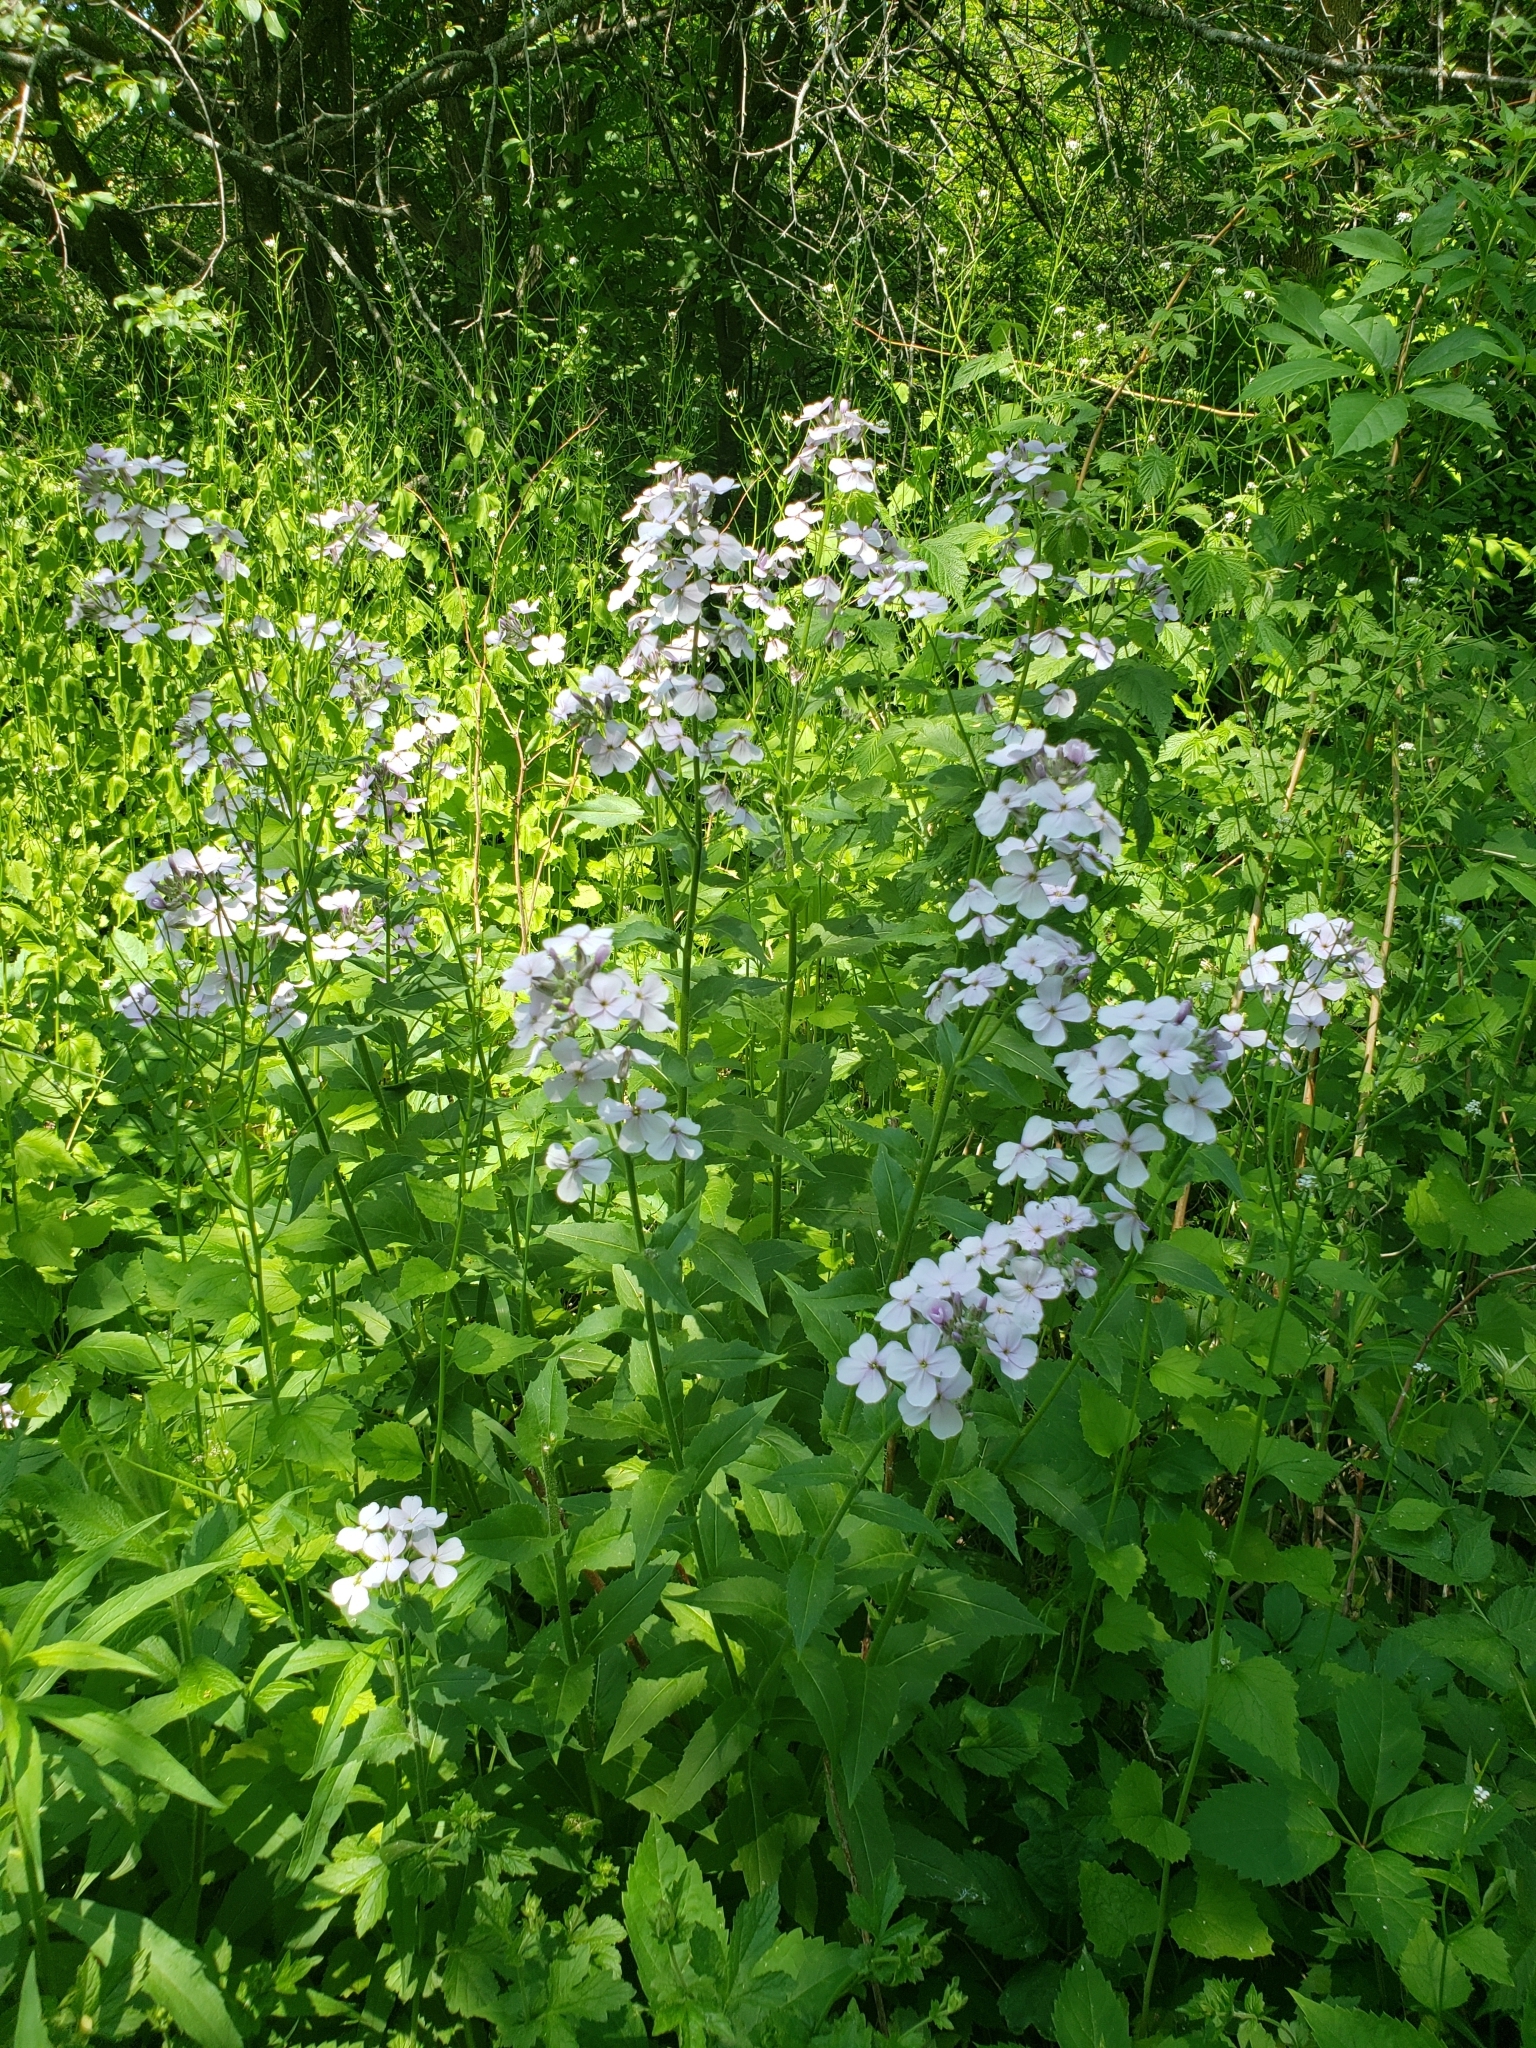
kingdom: Plantae
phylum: Tracheophyta
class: Magnoliopsida
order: Brassicales
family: Brassicaceae
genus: Hesperis
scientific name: Hesperis matronalis
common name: Dame's-violet
